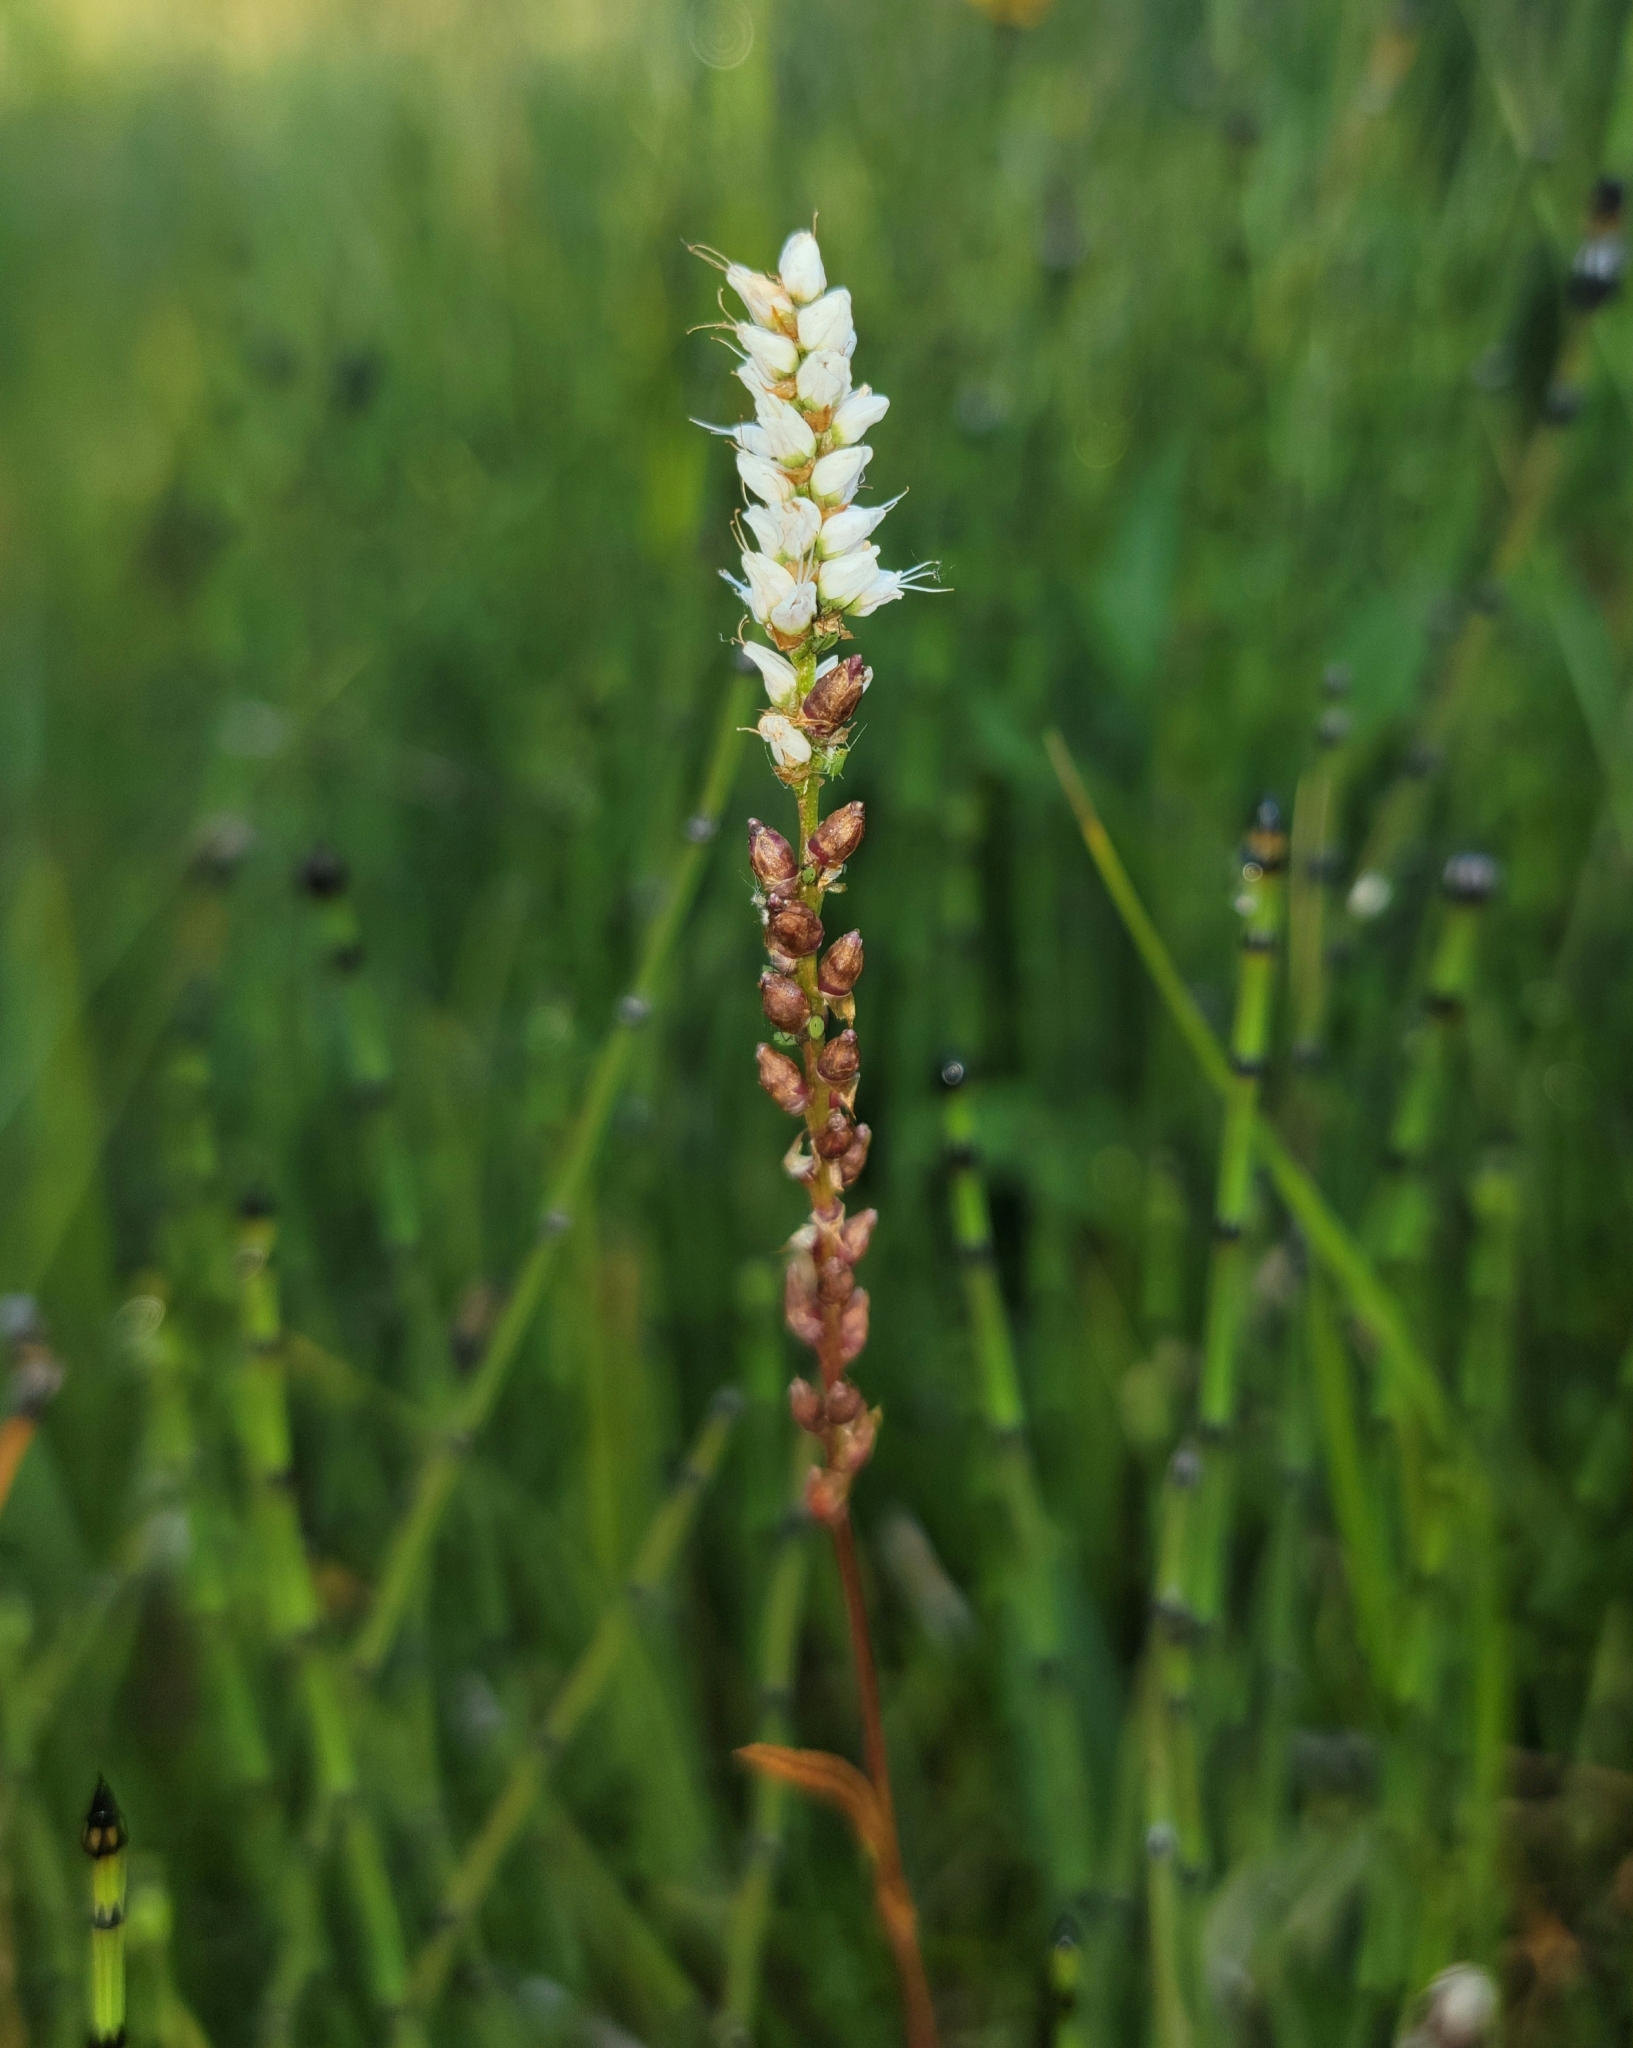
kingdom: Plantae
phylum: Tracheophyta
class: Magnoliopsida
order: Caryophyllales
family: Polygonaceae
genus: Bistorta
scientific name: Bistorta vivipara
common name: Alpine bistort
